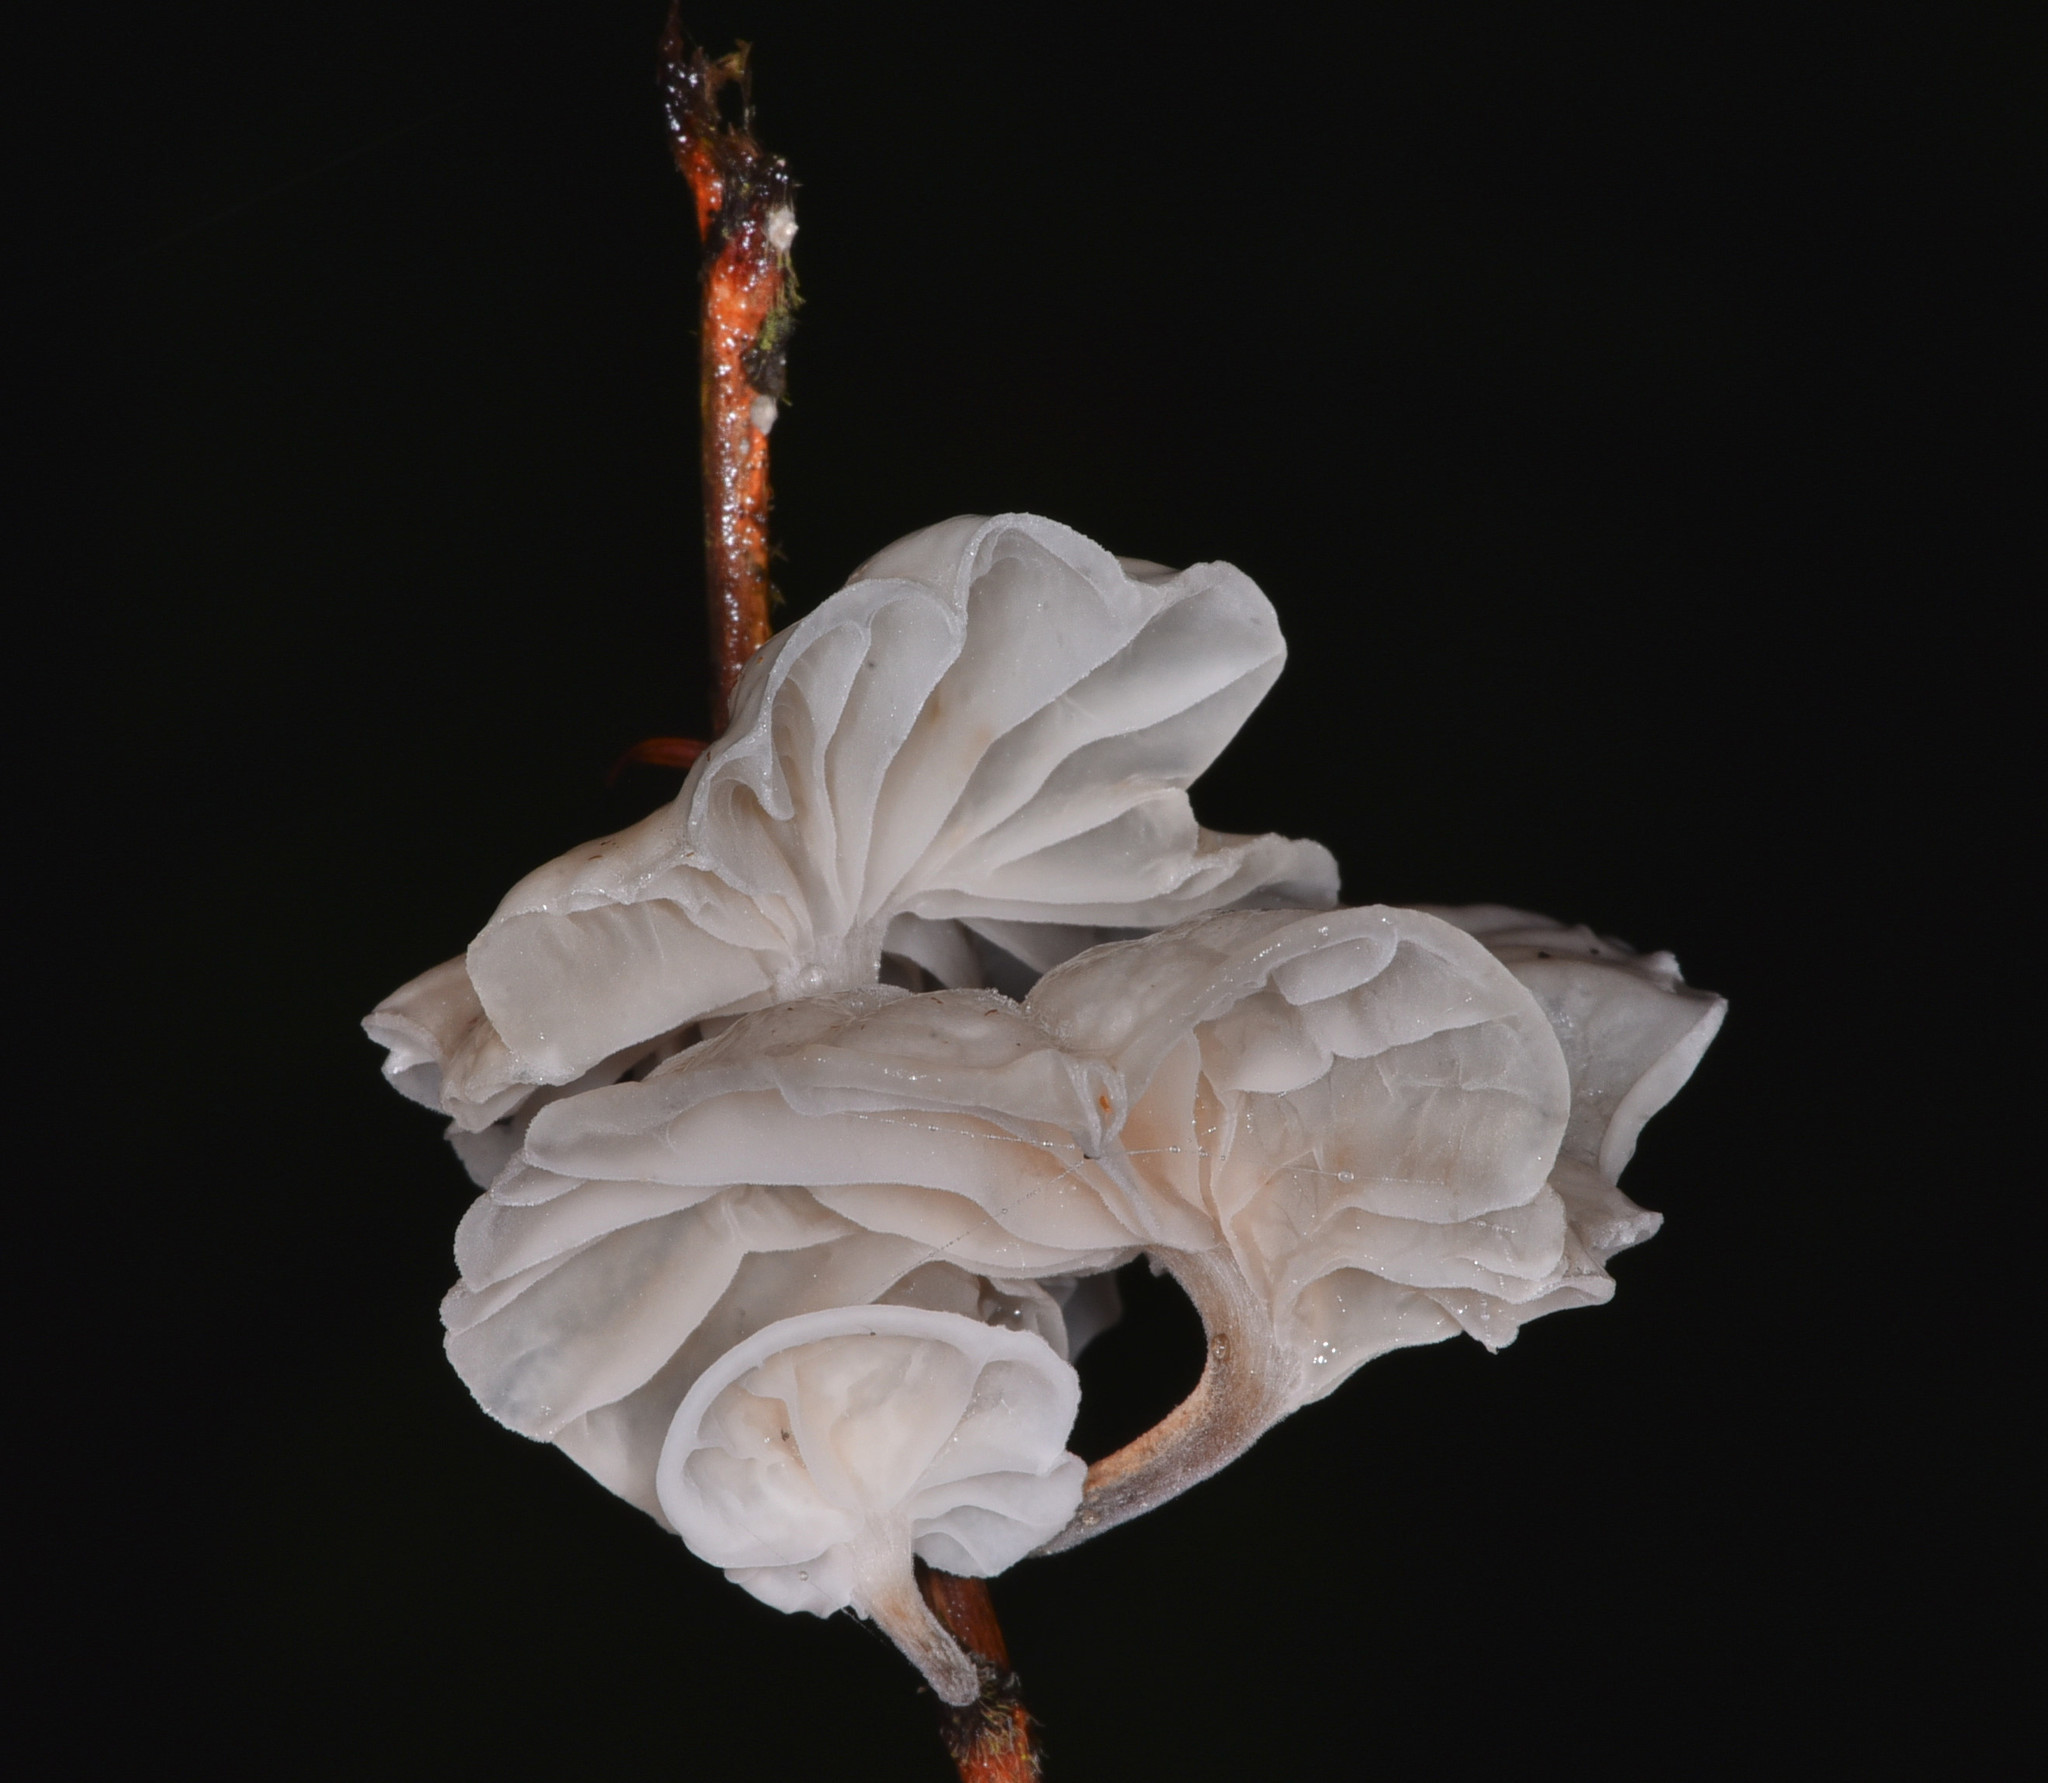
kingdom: Fungi
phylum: Basidiomycota
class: Agaricomycetes
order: Agaricales
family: Omphalotaceae
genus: Marasmiellus
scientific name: Marasmiellus candidus
